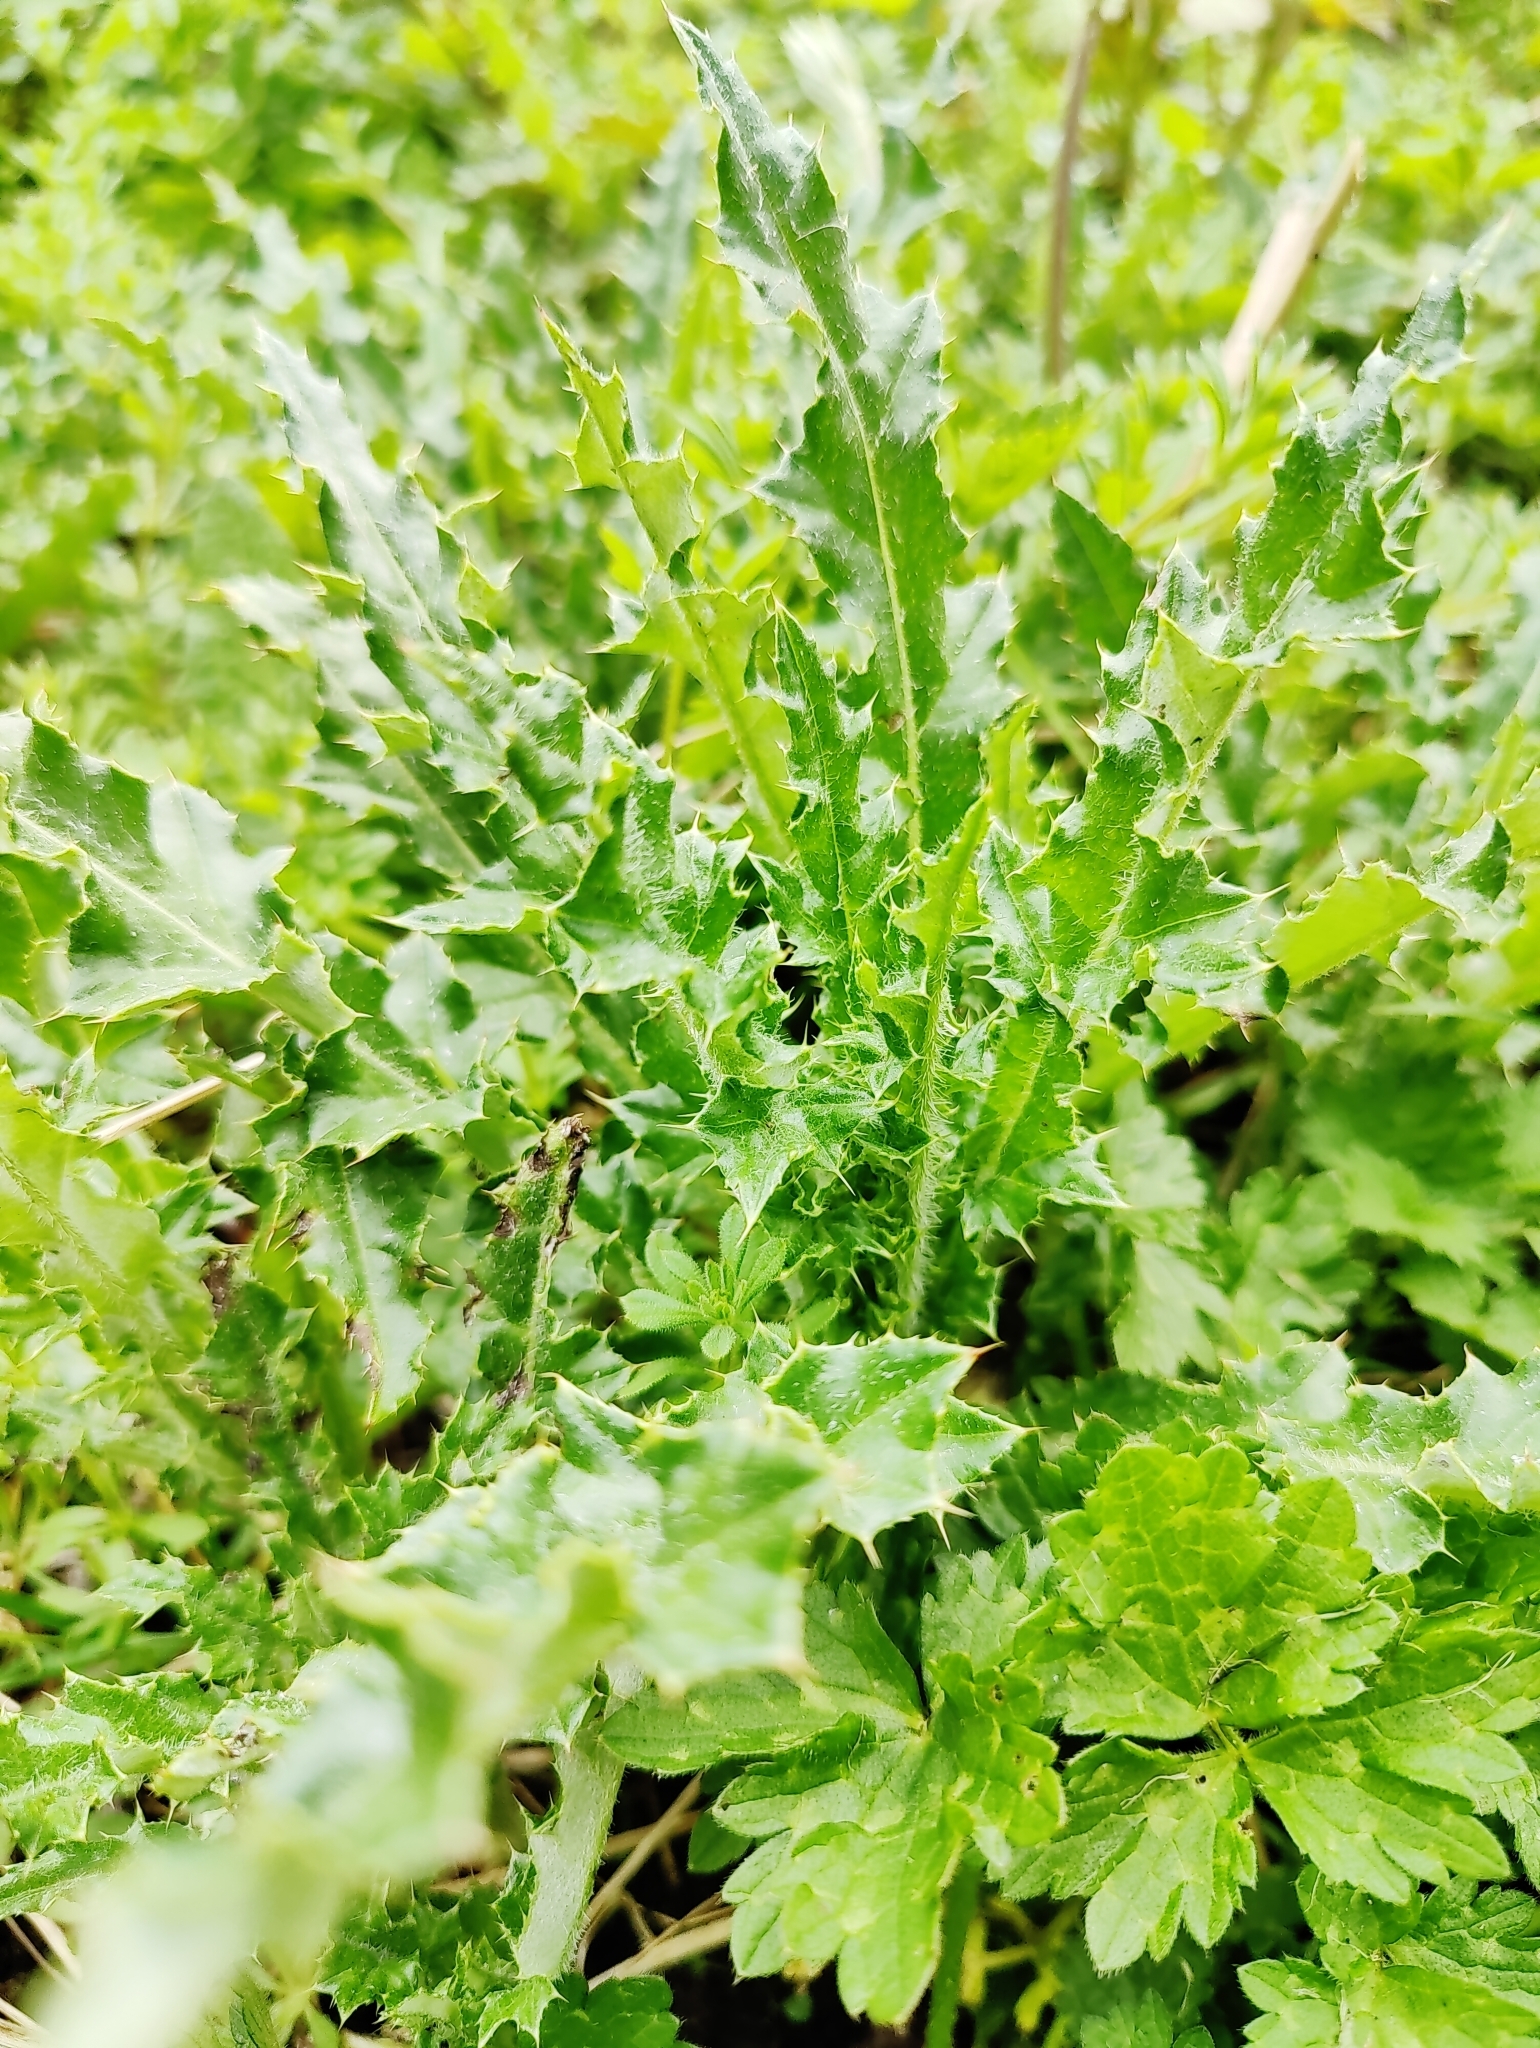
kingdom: Plantae
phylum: Tracheophyta
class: Magnoliopsida
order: Asterales
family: Asteraceae
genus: Cirsium
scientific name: Cirsium arvense
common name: Creeping thistle
